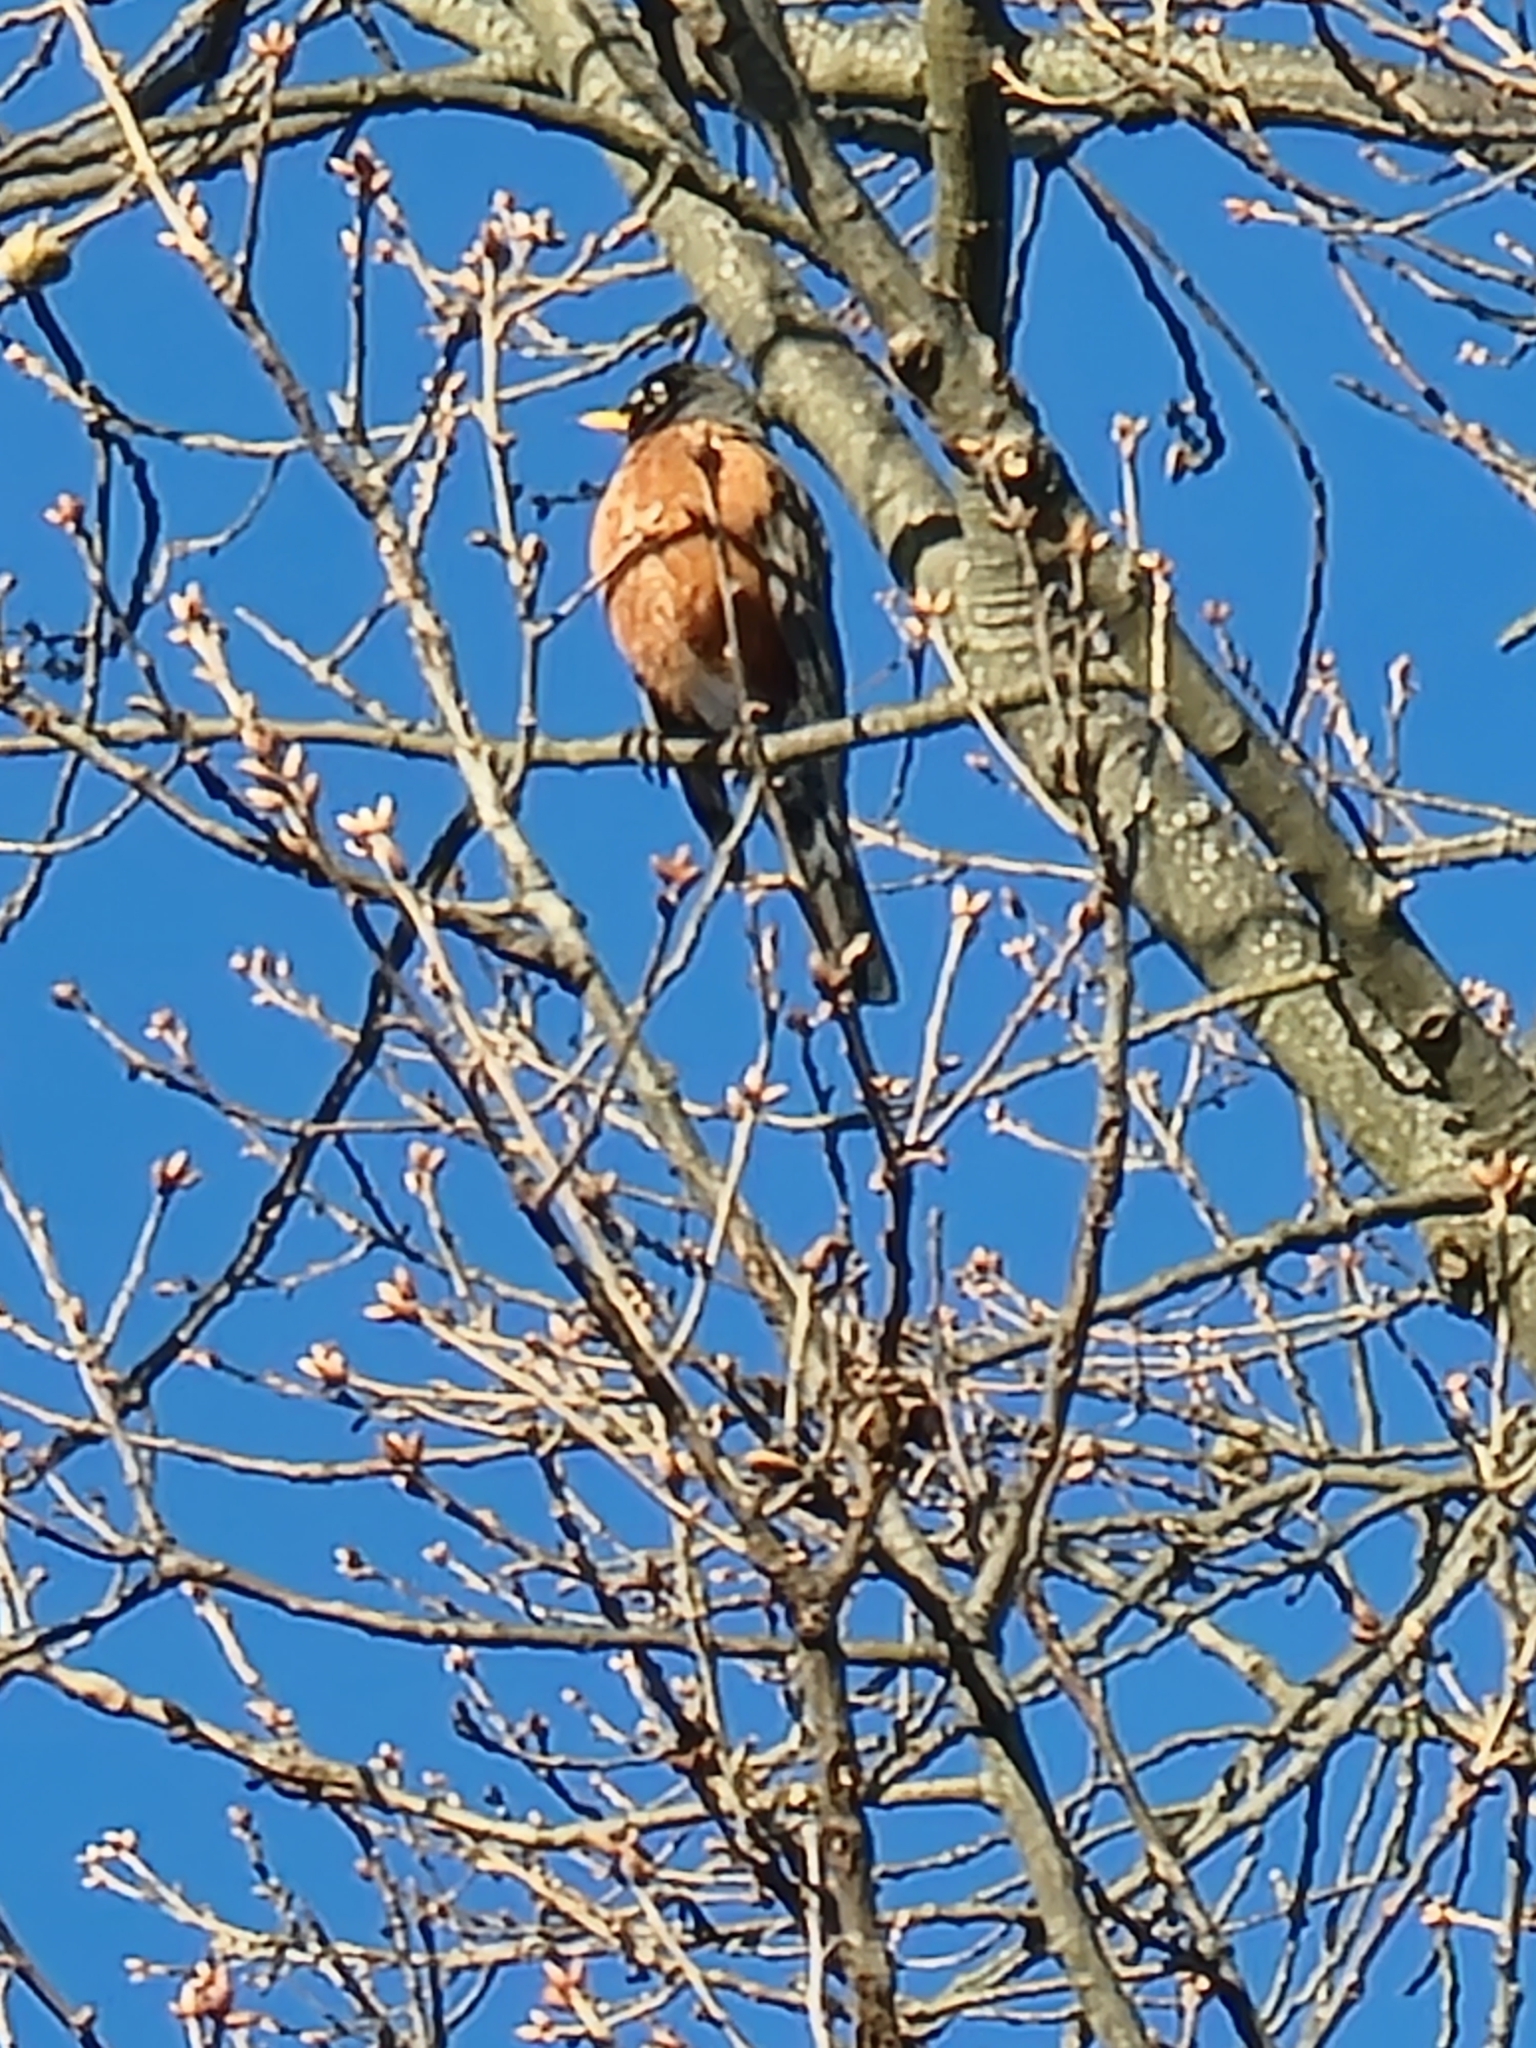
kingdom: Animalia
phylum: Chordata
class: Aves
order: Passeriformes
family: Turdidae
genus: Turdus
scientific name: Turdus migratorius
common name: American robin
